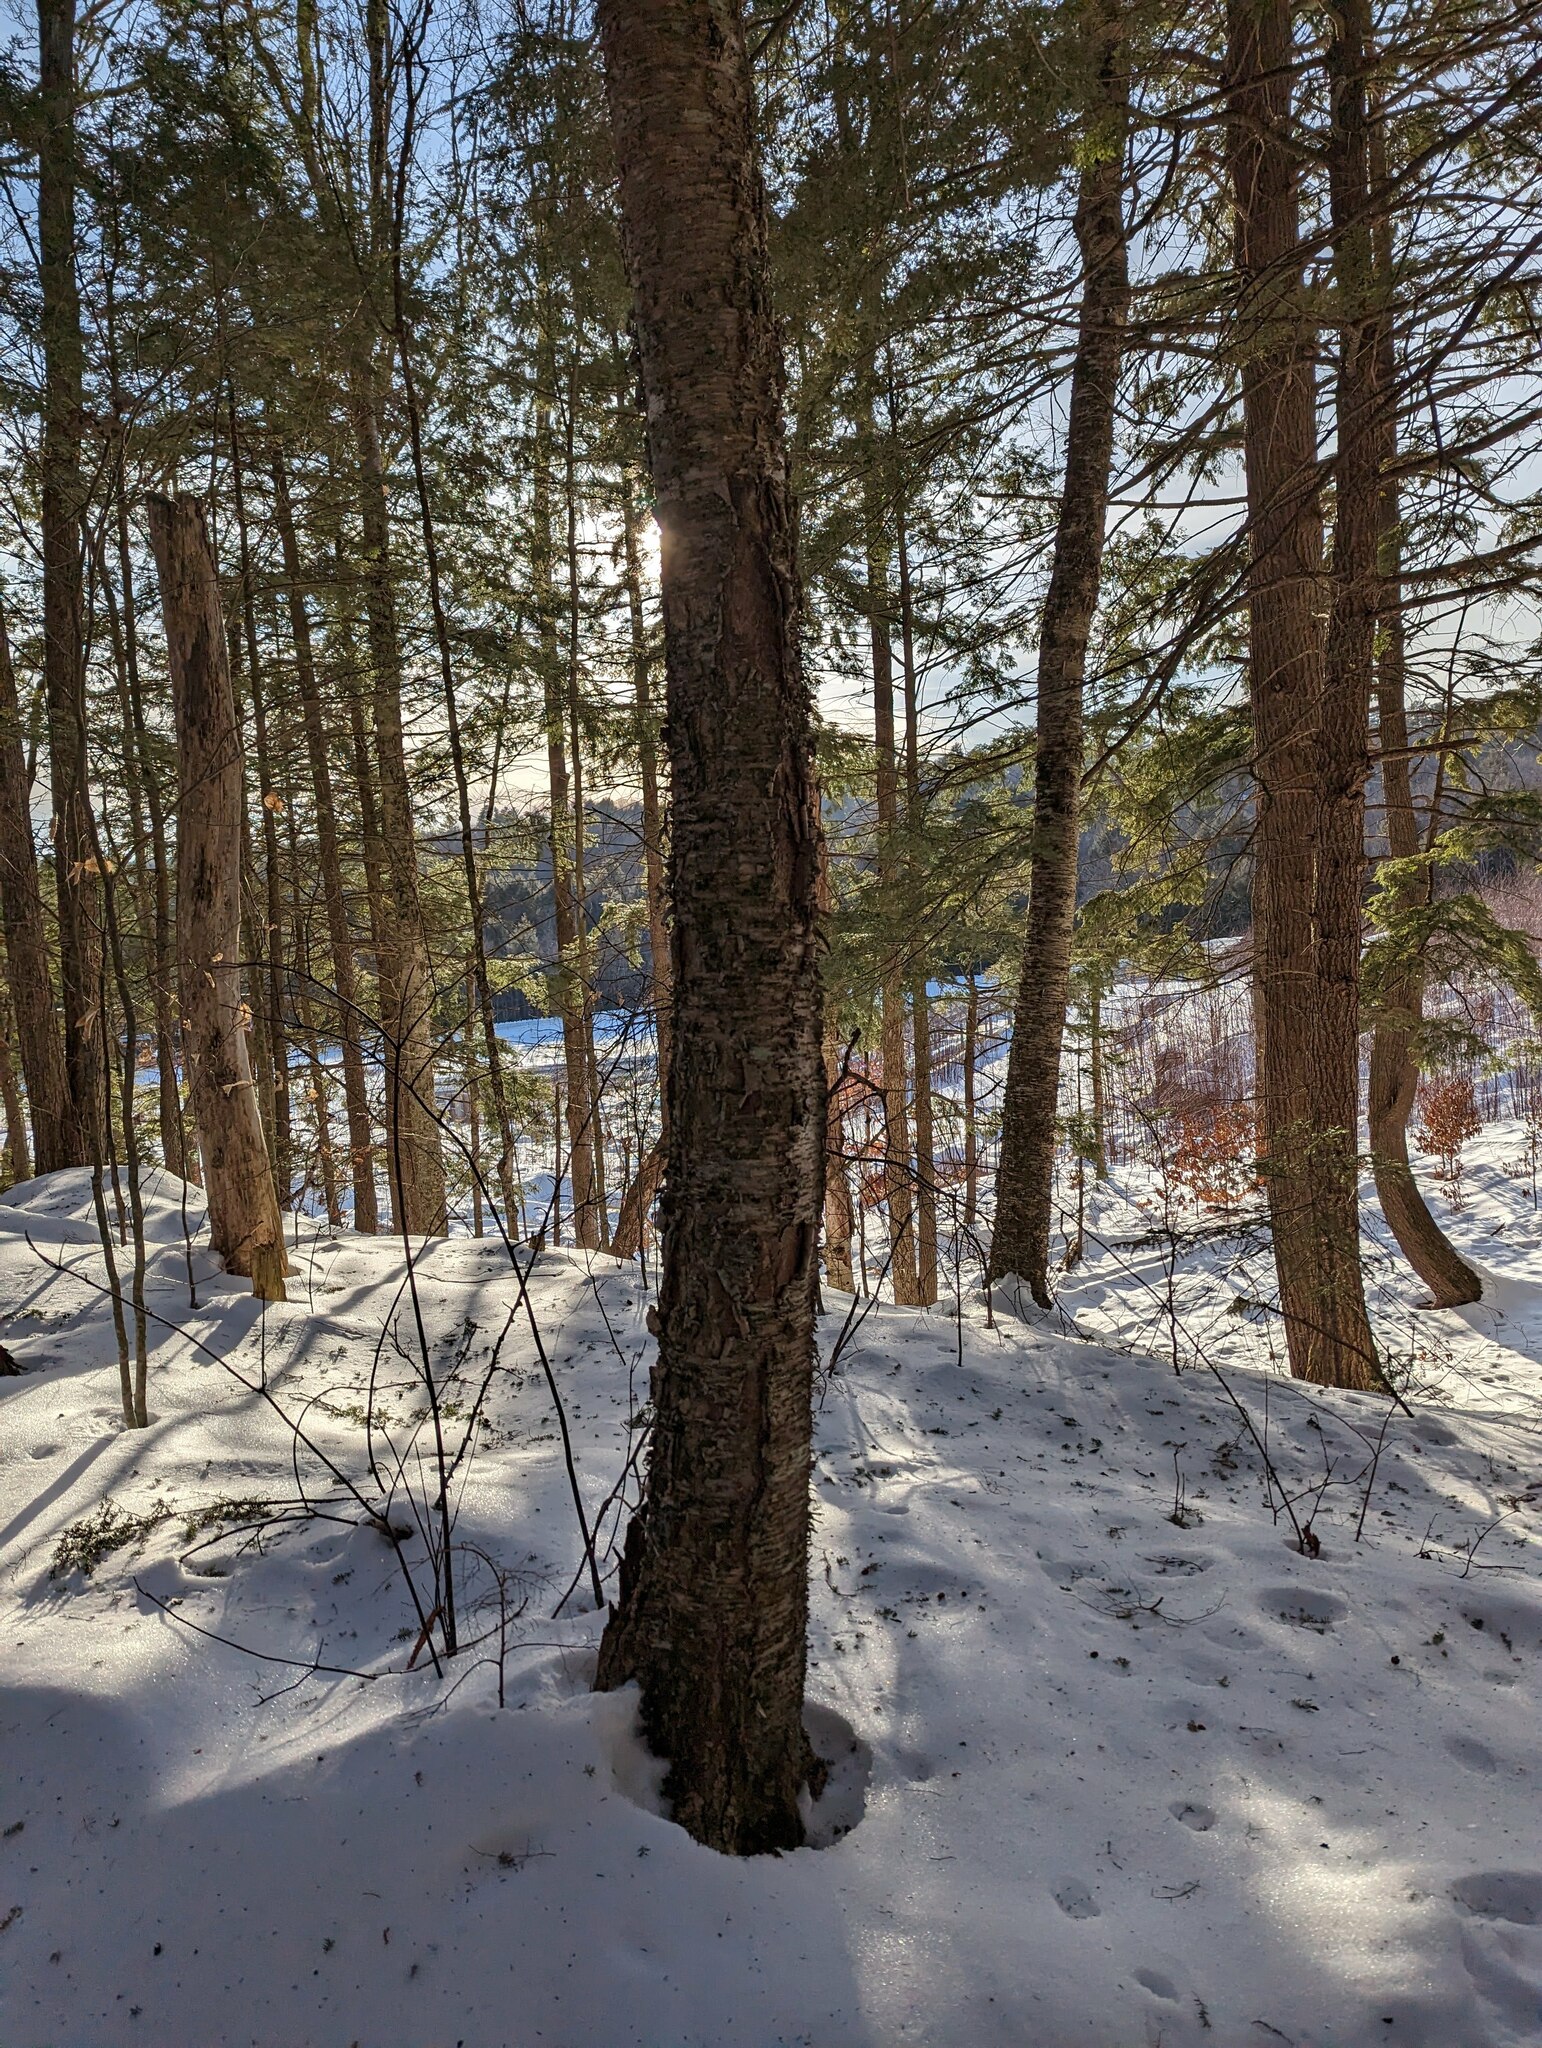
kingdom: Plantae
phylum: Tracheophyta
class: Magnoliopsida
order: Fagales
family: Betulaceae
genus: Betula
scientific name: Betula alleghaniensis
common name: Yellow birch
